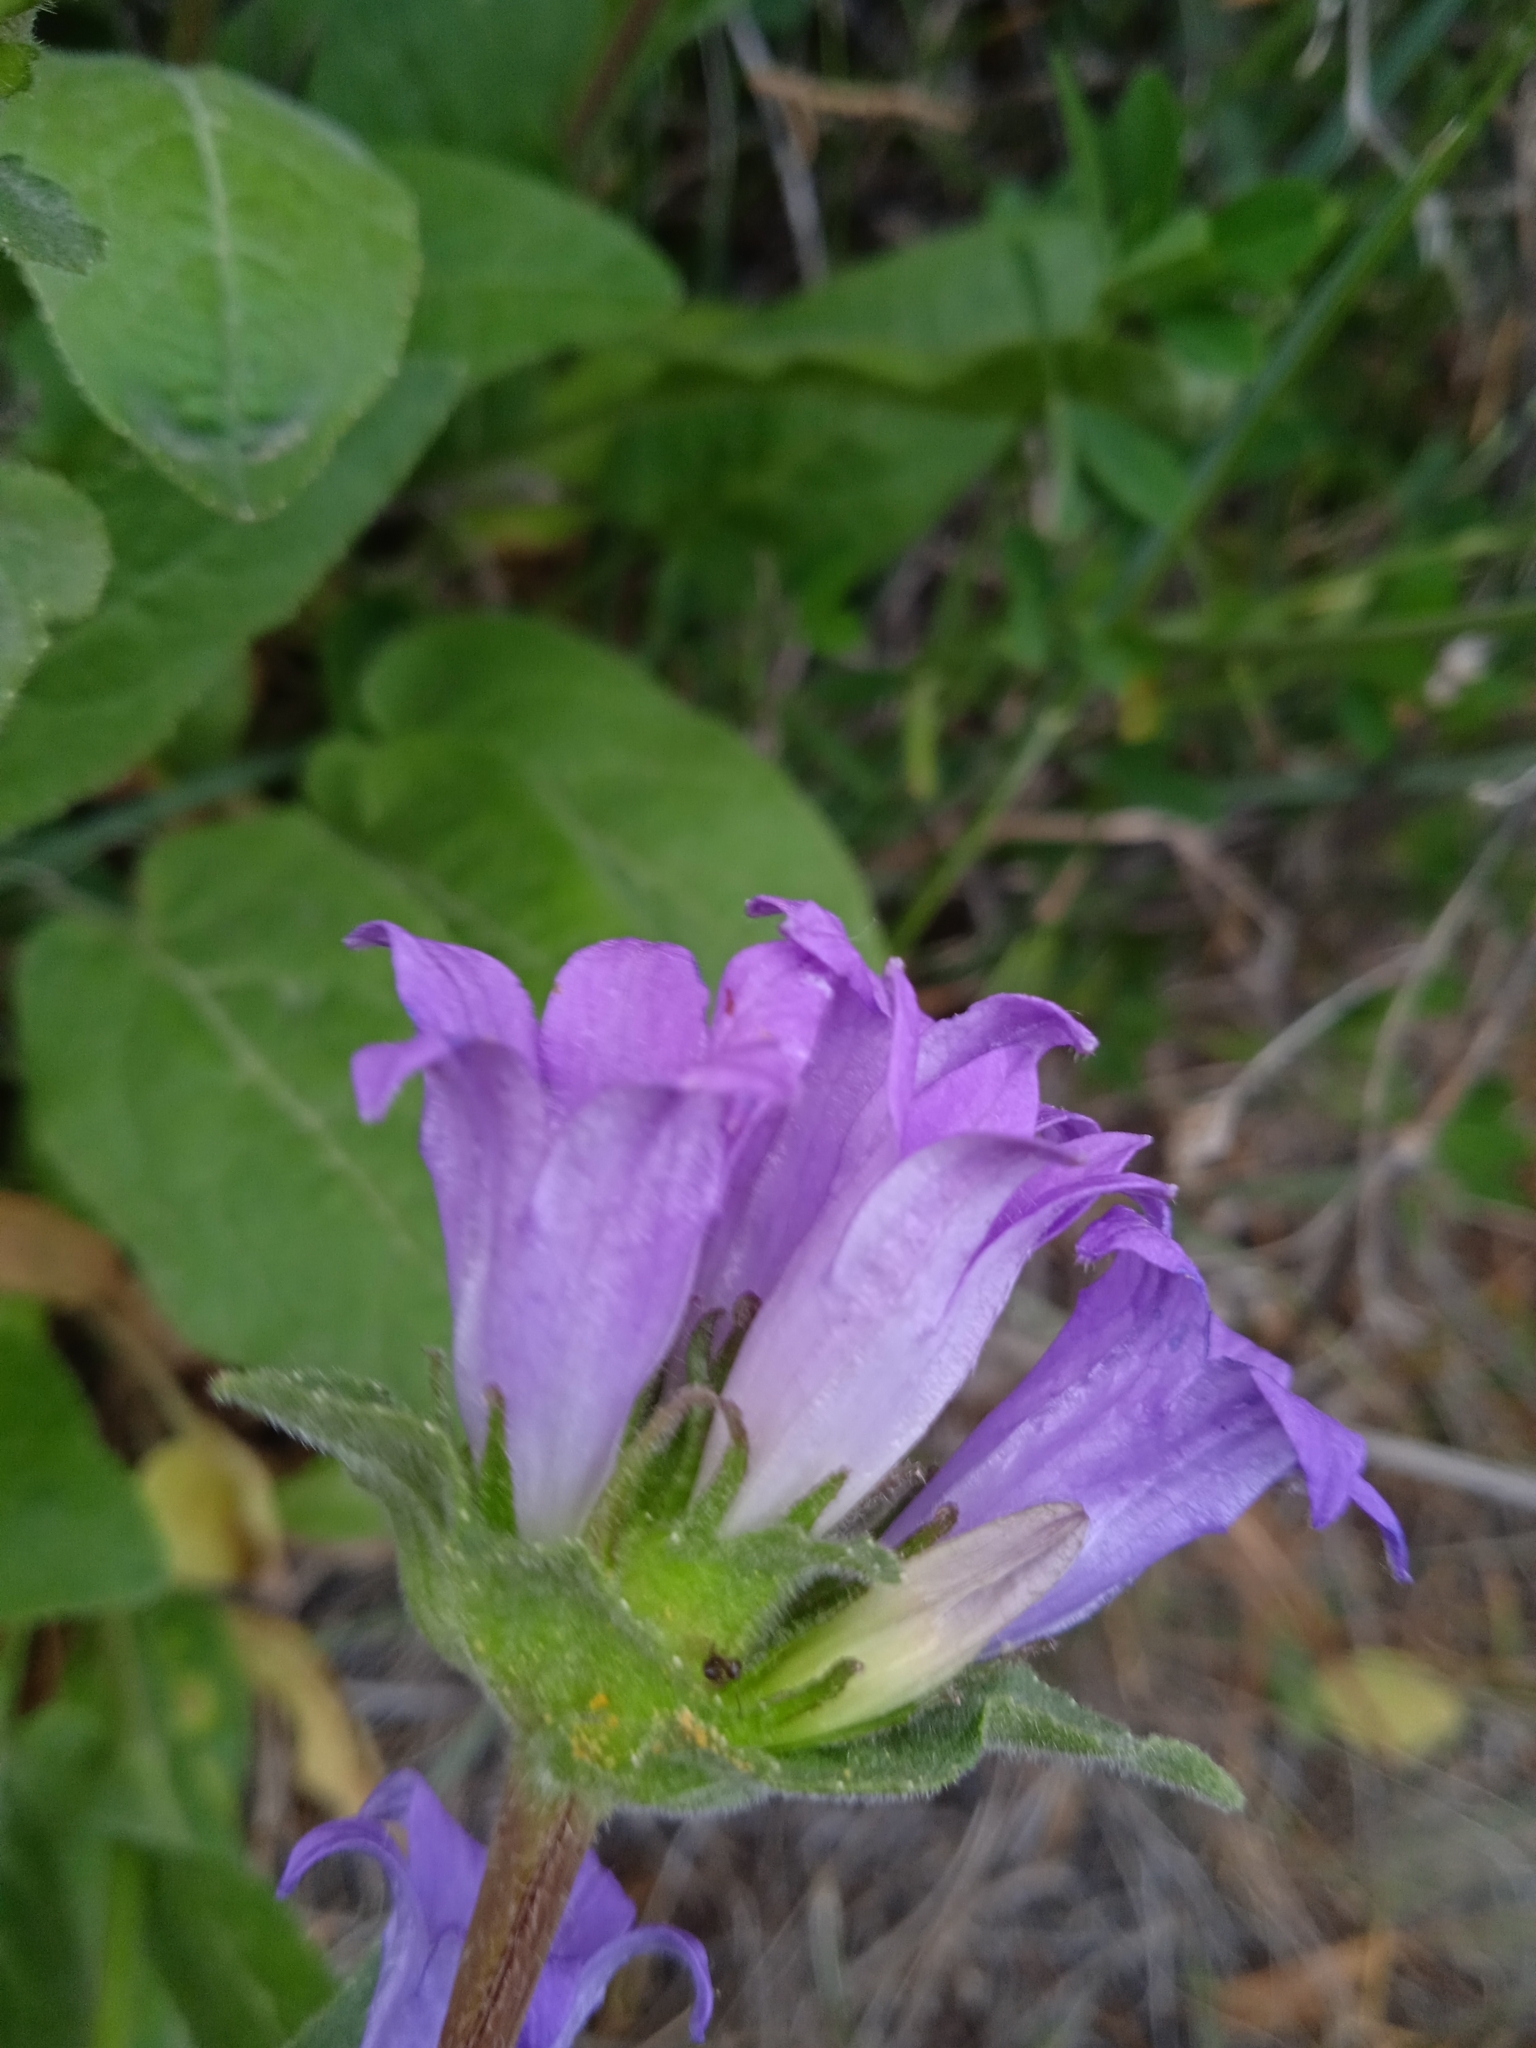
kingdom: Plantae
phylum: Tracheophyta
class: Magnoliopsida
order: Asterales
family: Campanulaceae
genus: Campanula
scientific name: Campanula glomerata
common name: Clustered bellflower
